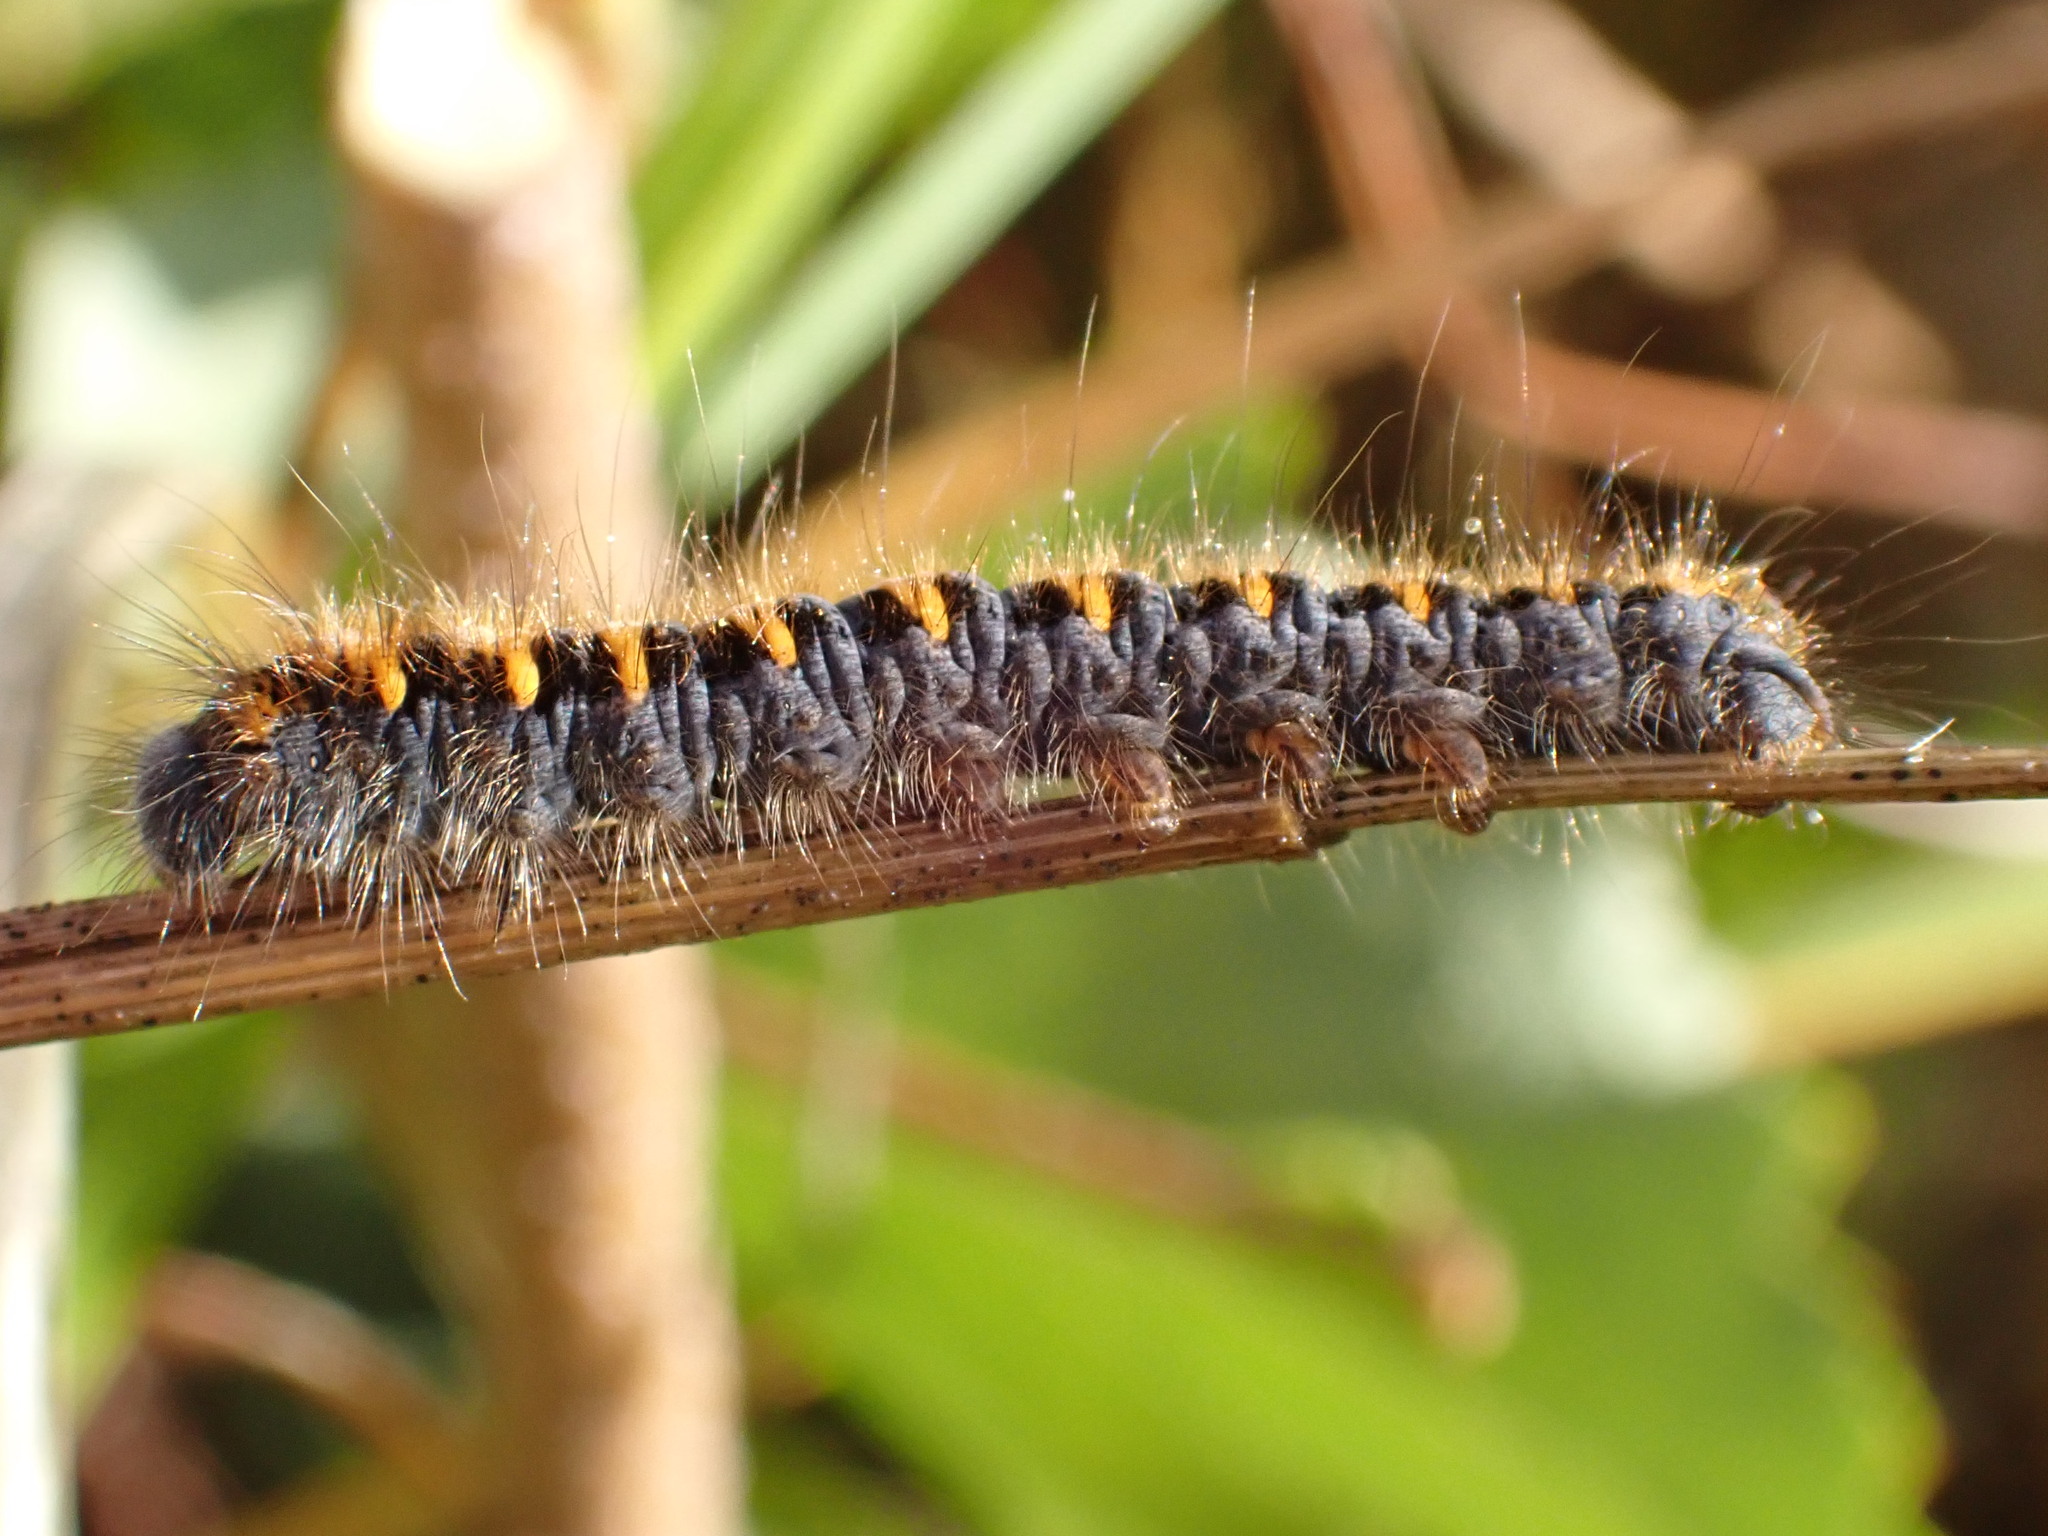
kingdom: Animalia
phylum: Arthropoda
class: Insecta
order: Lepidoptera
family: Lasiocampidae
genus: Lasiocampa
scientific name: Lasiocampa quercus
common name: Oak eggar
